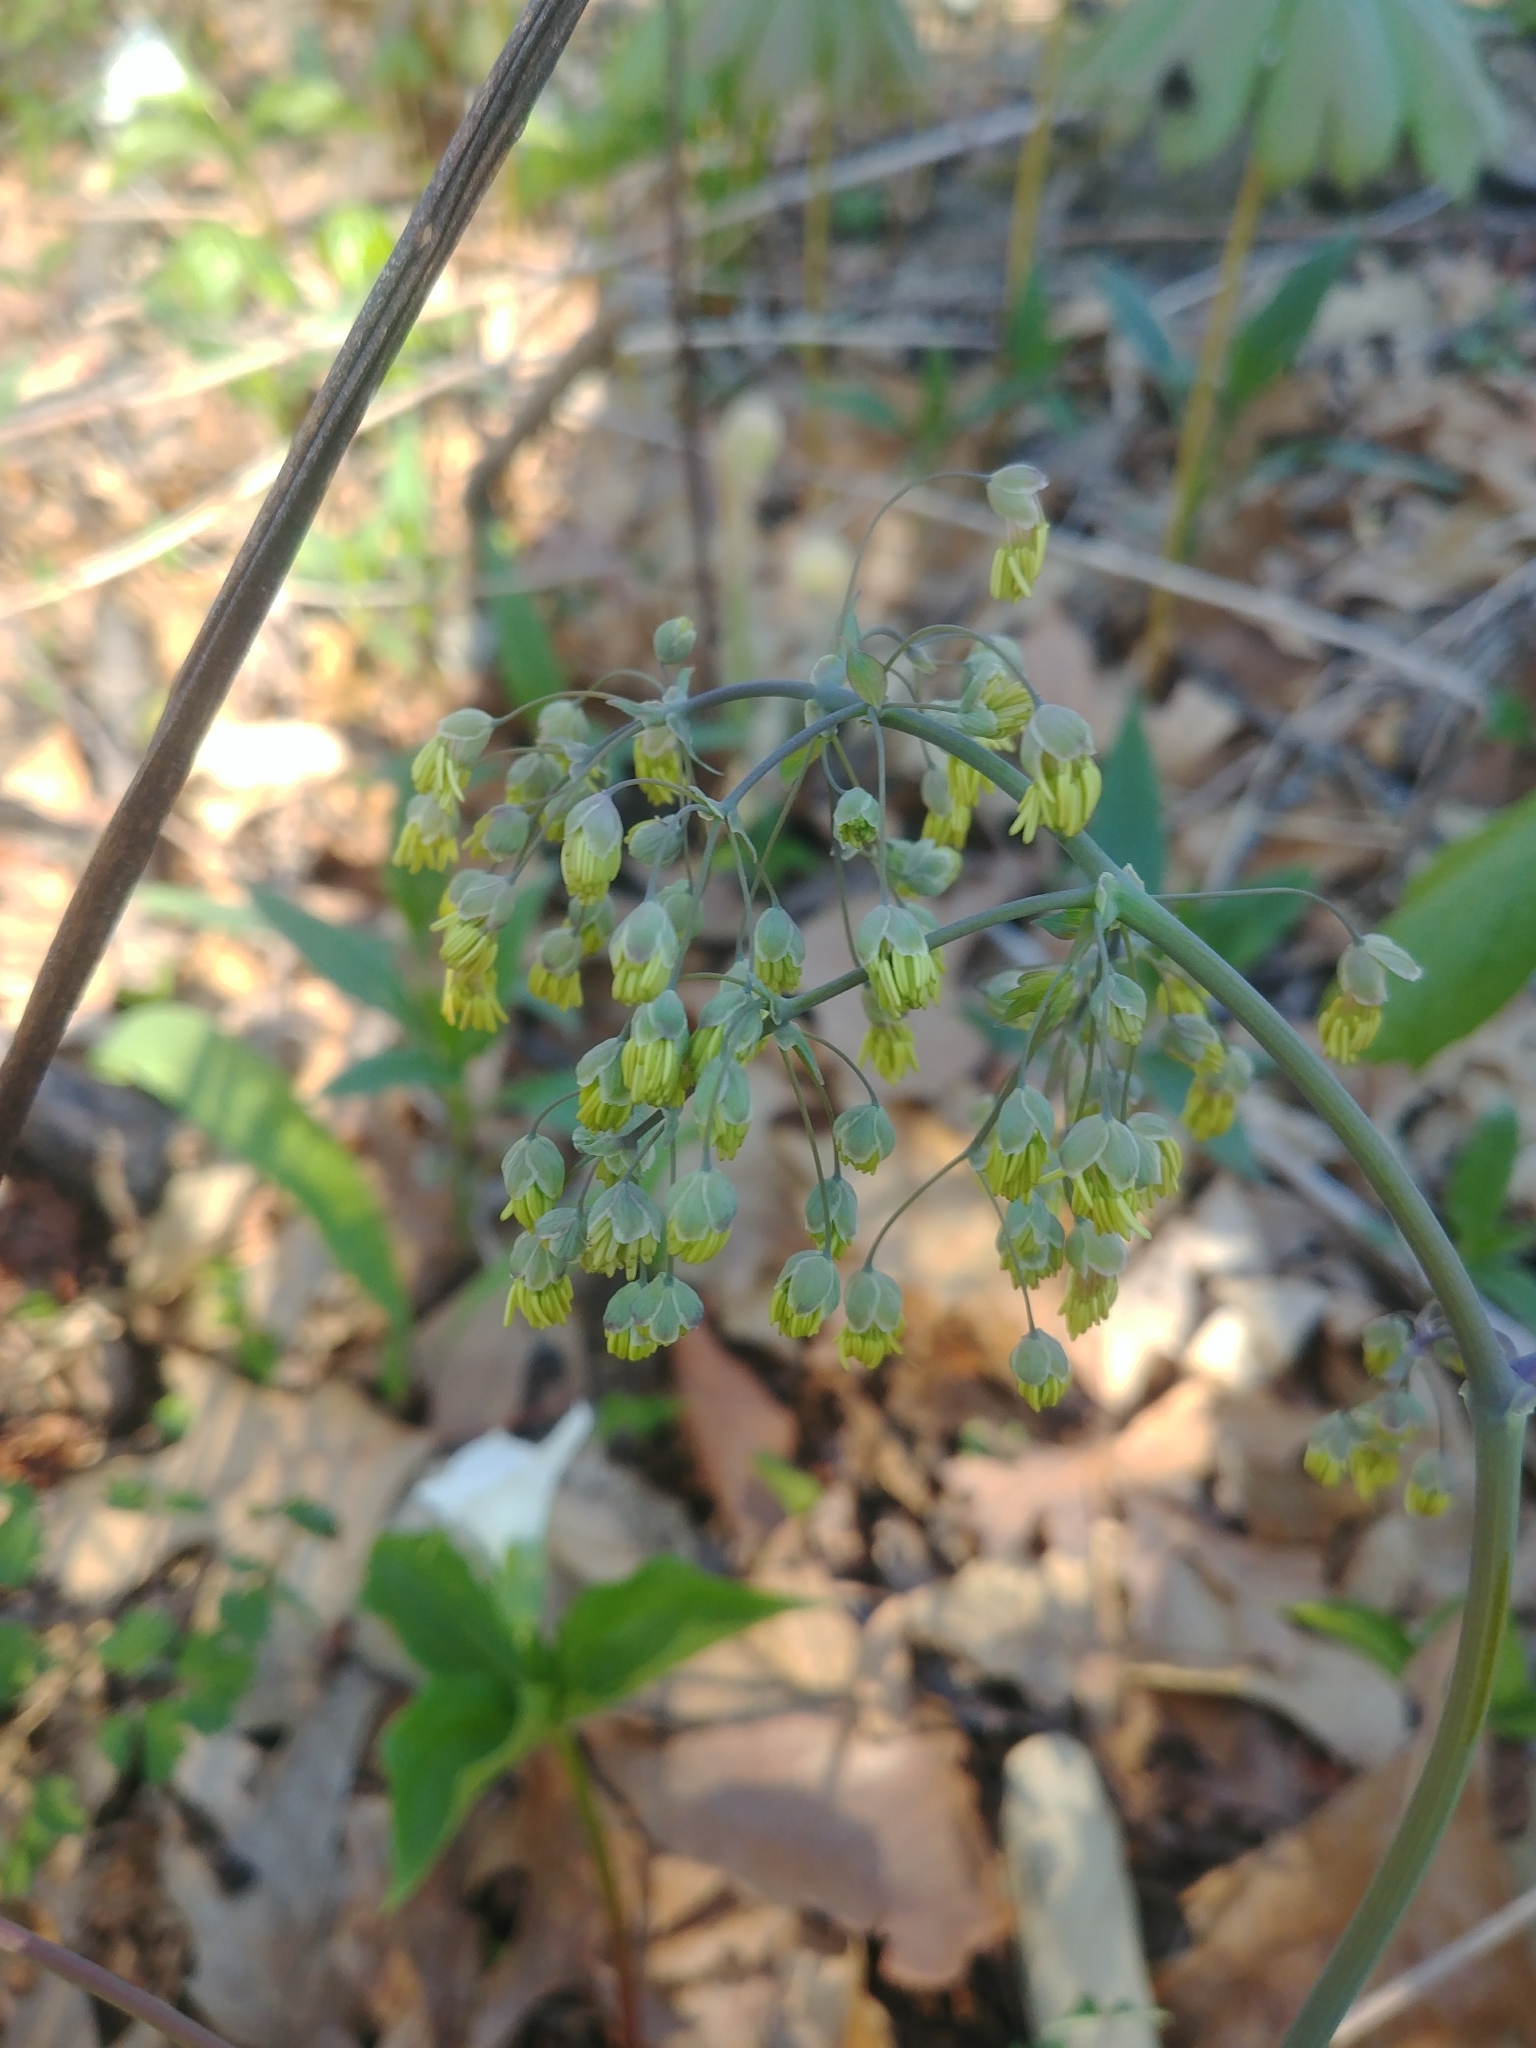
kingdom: Plantae
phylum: Tracheophyta
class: Magnoliopsida
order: Ranunculales
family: Ranunculaceae
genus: Thalictrum
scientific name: Thalictrum dioicum
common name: Early meadow-rue
